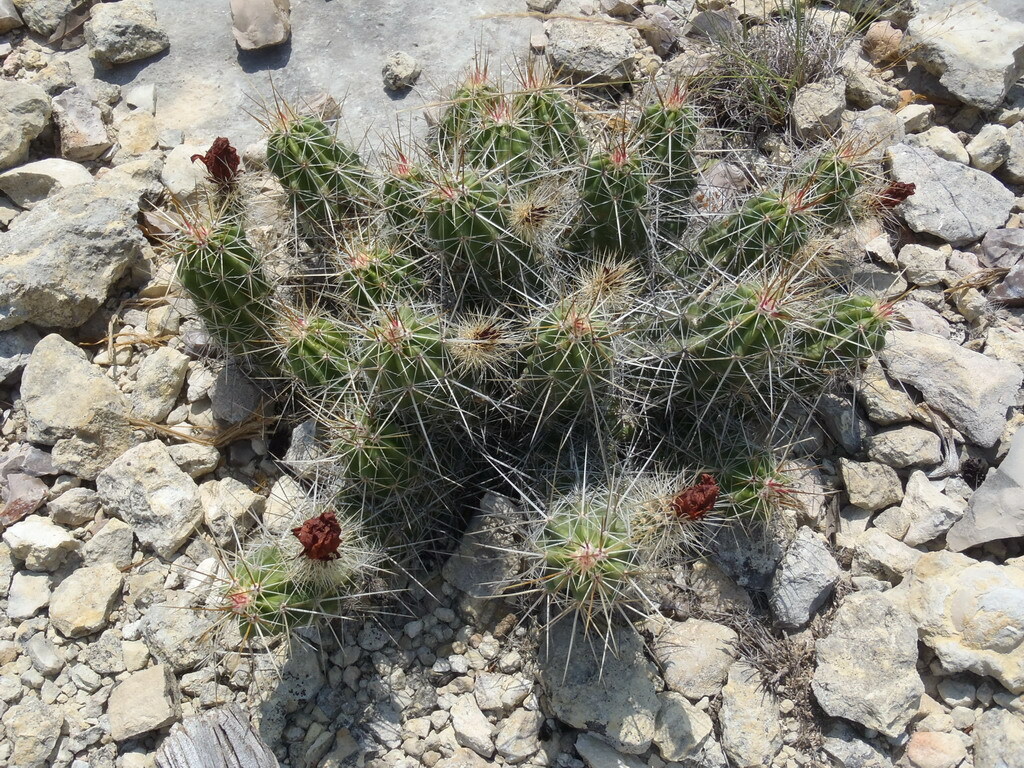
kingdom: Plantae
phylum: Tracheophyta
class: Magnoliopsida
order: Caryophyllales
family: Cactaceae
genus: Echinocereus
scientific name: Echinocereus enneacanthus
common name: Pitaya
